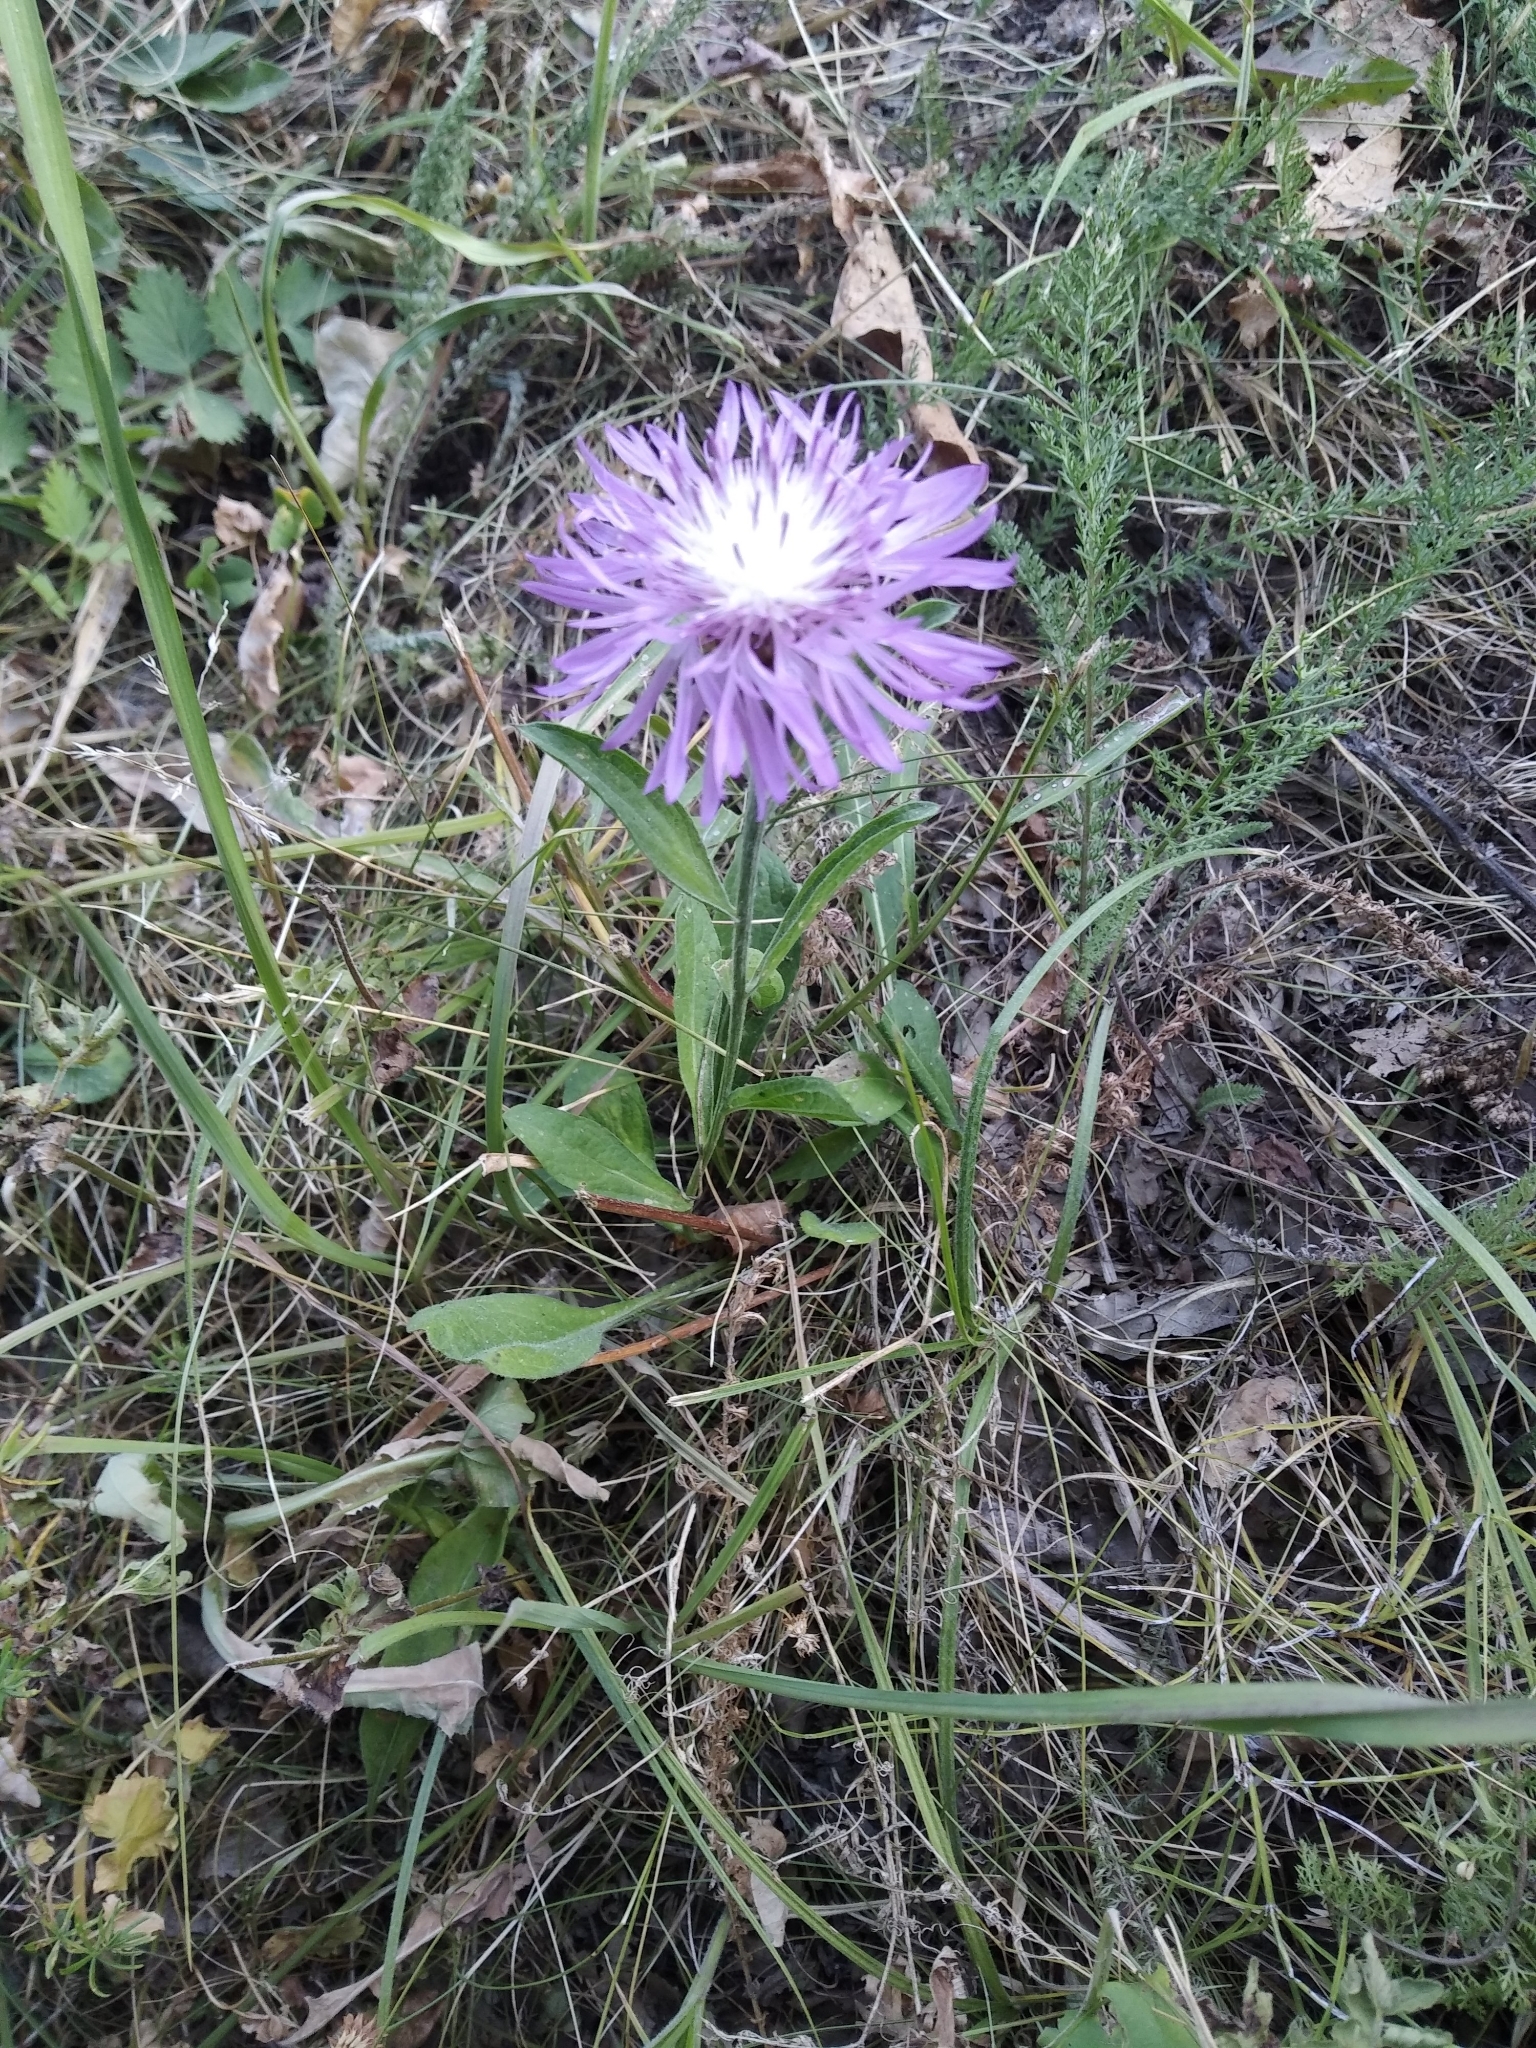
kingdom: Plantae
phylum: Tracheophyta
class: Magnoliopsida
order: Asterales
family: Asteraceae
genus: Centaurea
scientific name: Centaurea jacea
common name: Brown knapweed
